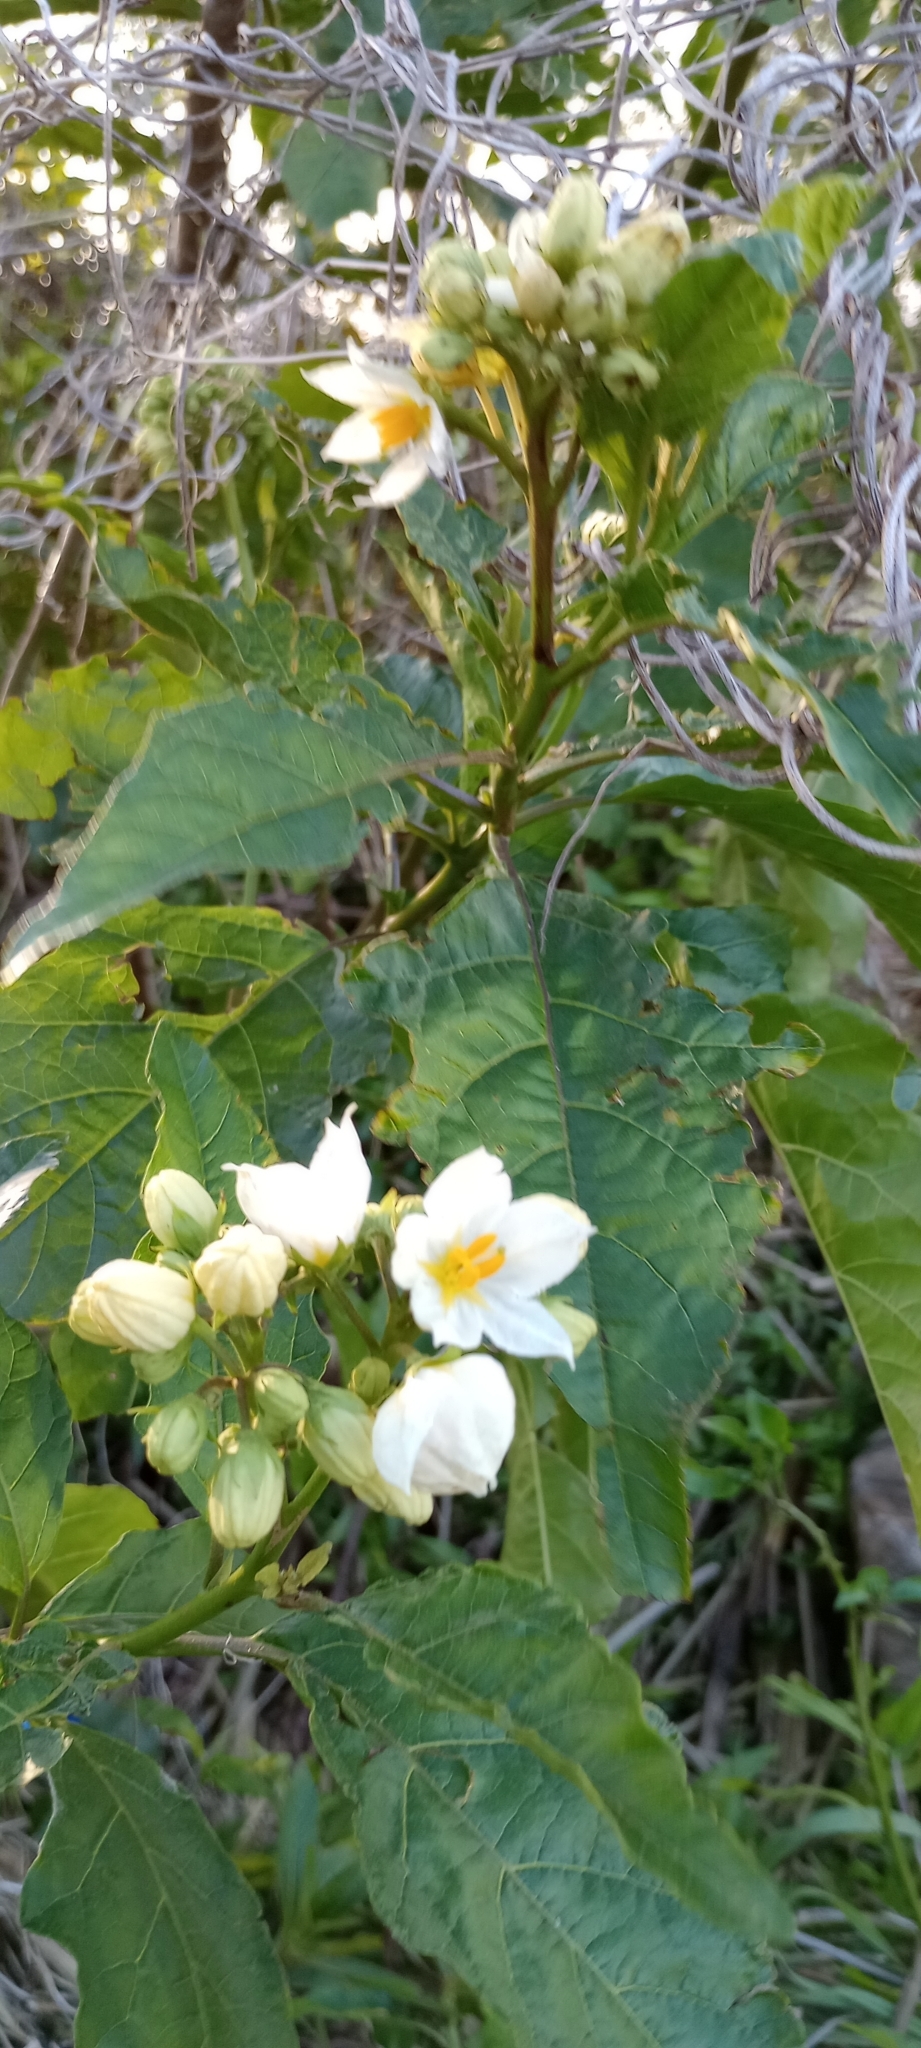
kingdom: Plantae
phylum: Tracheophyta
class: Magnoliopsida
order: Solanales
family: Solanaceae
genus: Solanum
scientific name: Solanum bonariense
